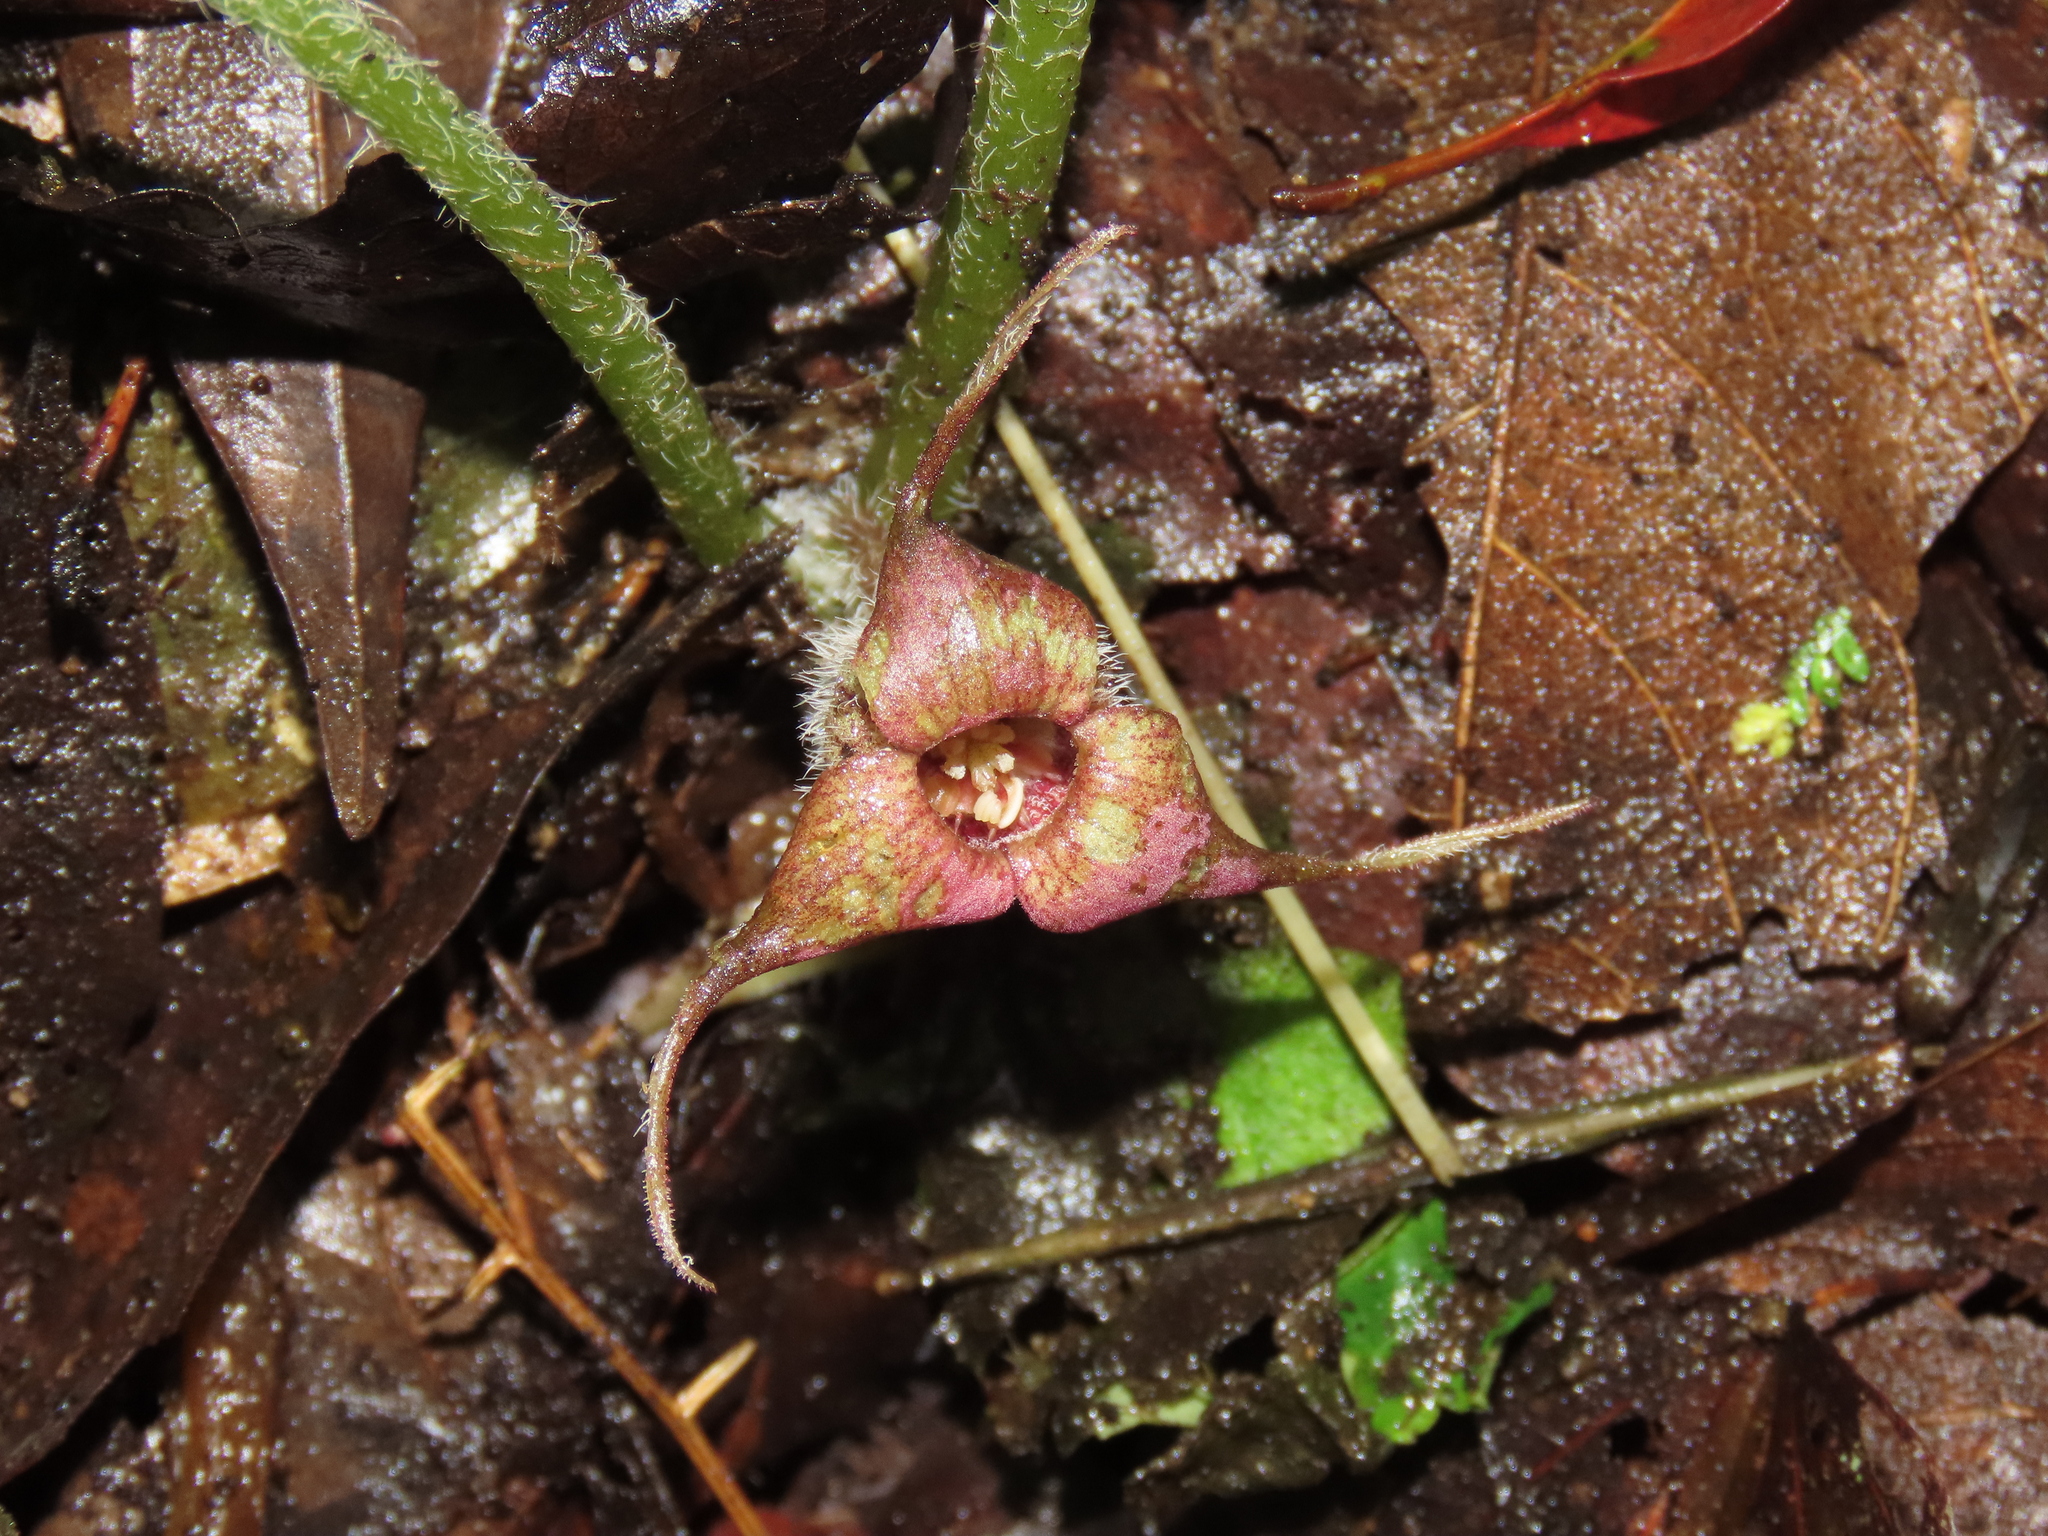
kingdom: Plantae
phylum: Tracheophyta
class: Magnoliopsida
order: Piperales
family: Aristolochiaceae
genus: Asarum
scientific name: Asarum caudigerum
